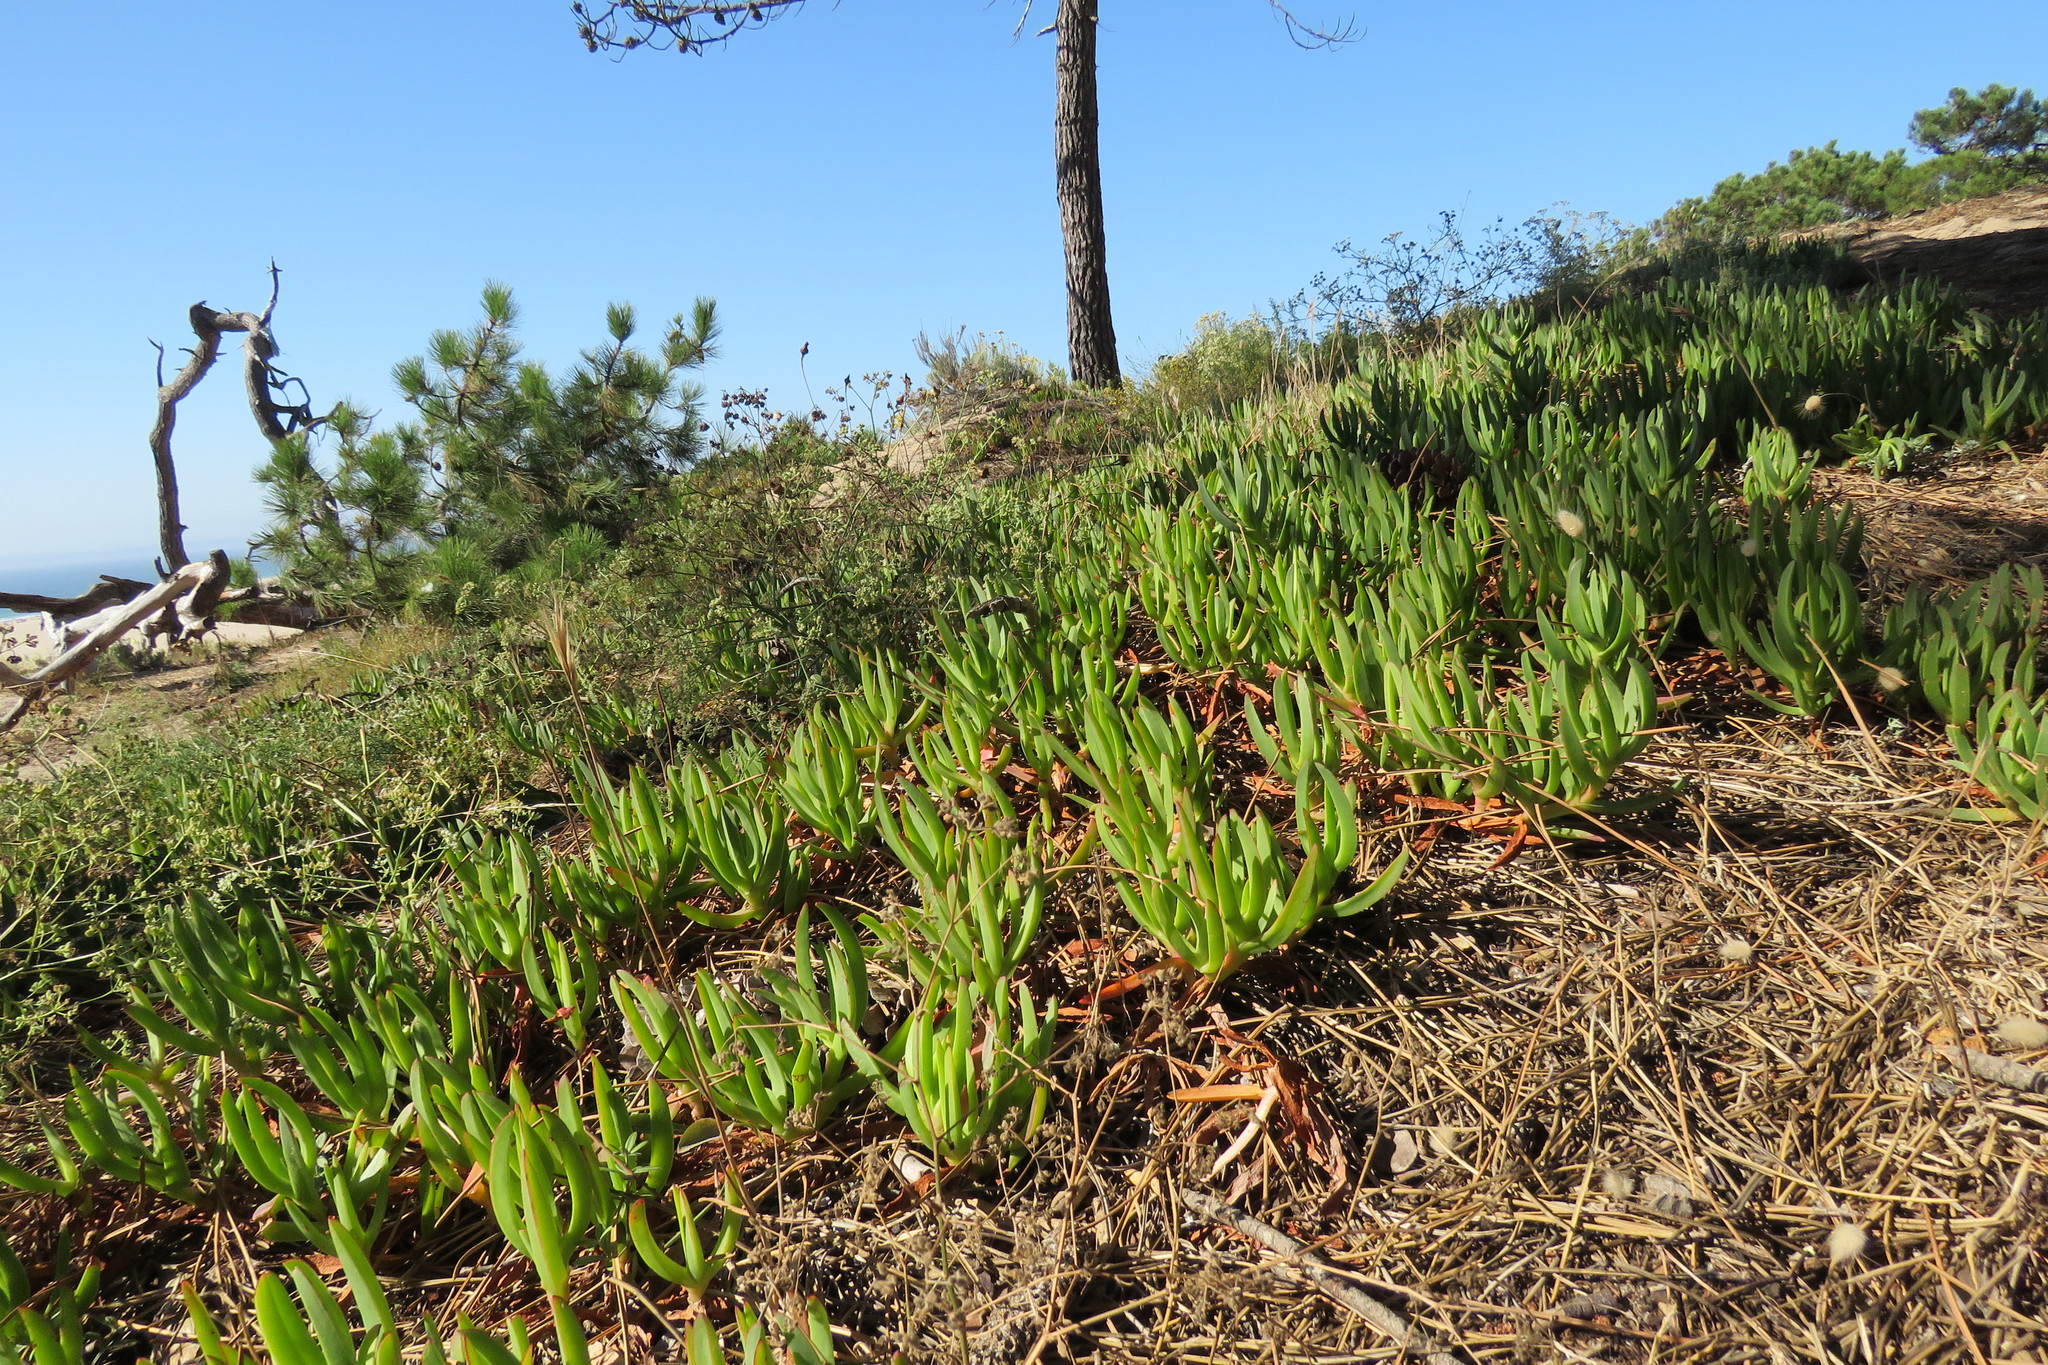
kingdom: Plantae
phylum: Tracheophyta
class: Magnoliopsida
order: Caryophyllales
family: Aizoaceae
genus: Carpobrotus
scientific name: Carpobrotus edulis
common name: Hottentot-fig
